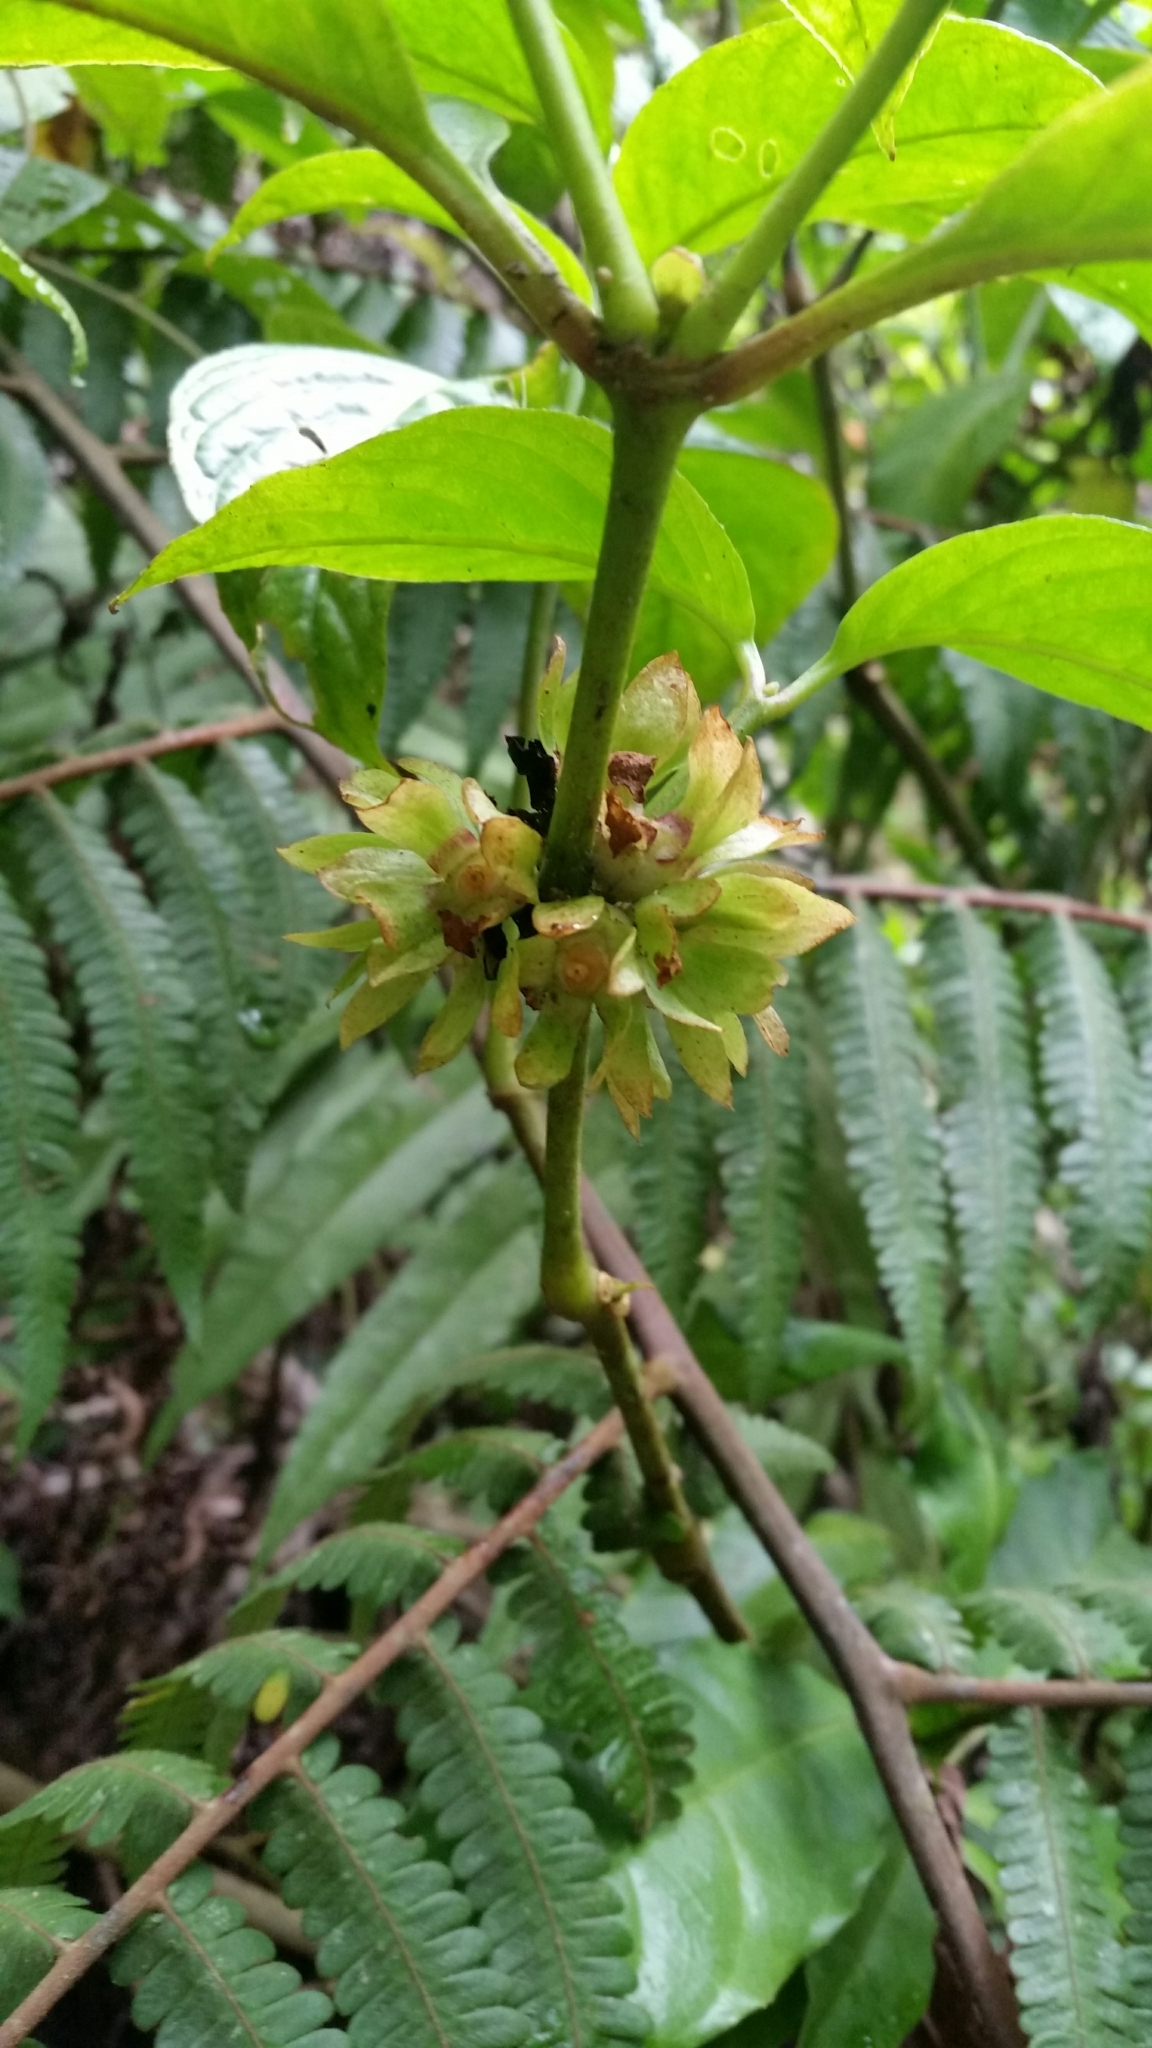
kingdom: Plantae
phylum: Tracheophyta
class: Magnoliopsida
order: Lamiales
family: Carlemanniaceae
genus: Silvianthus
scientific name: Silvianthus bracteatus
